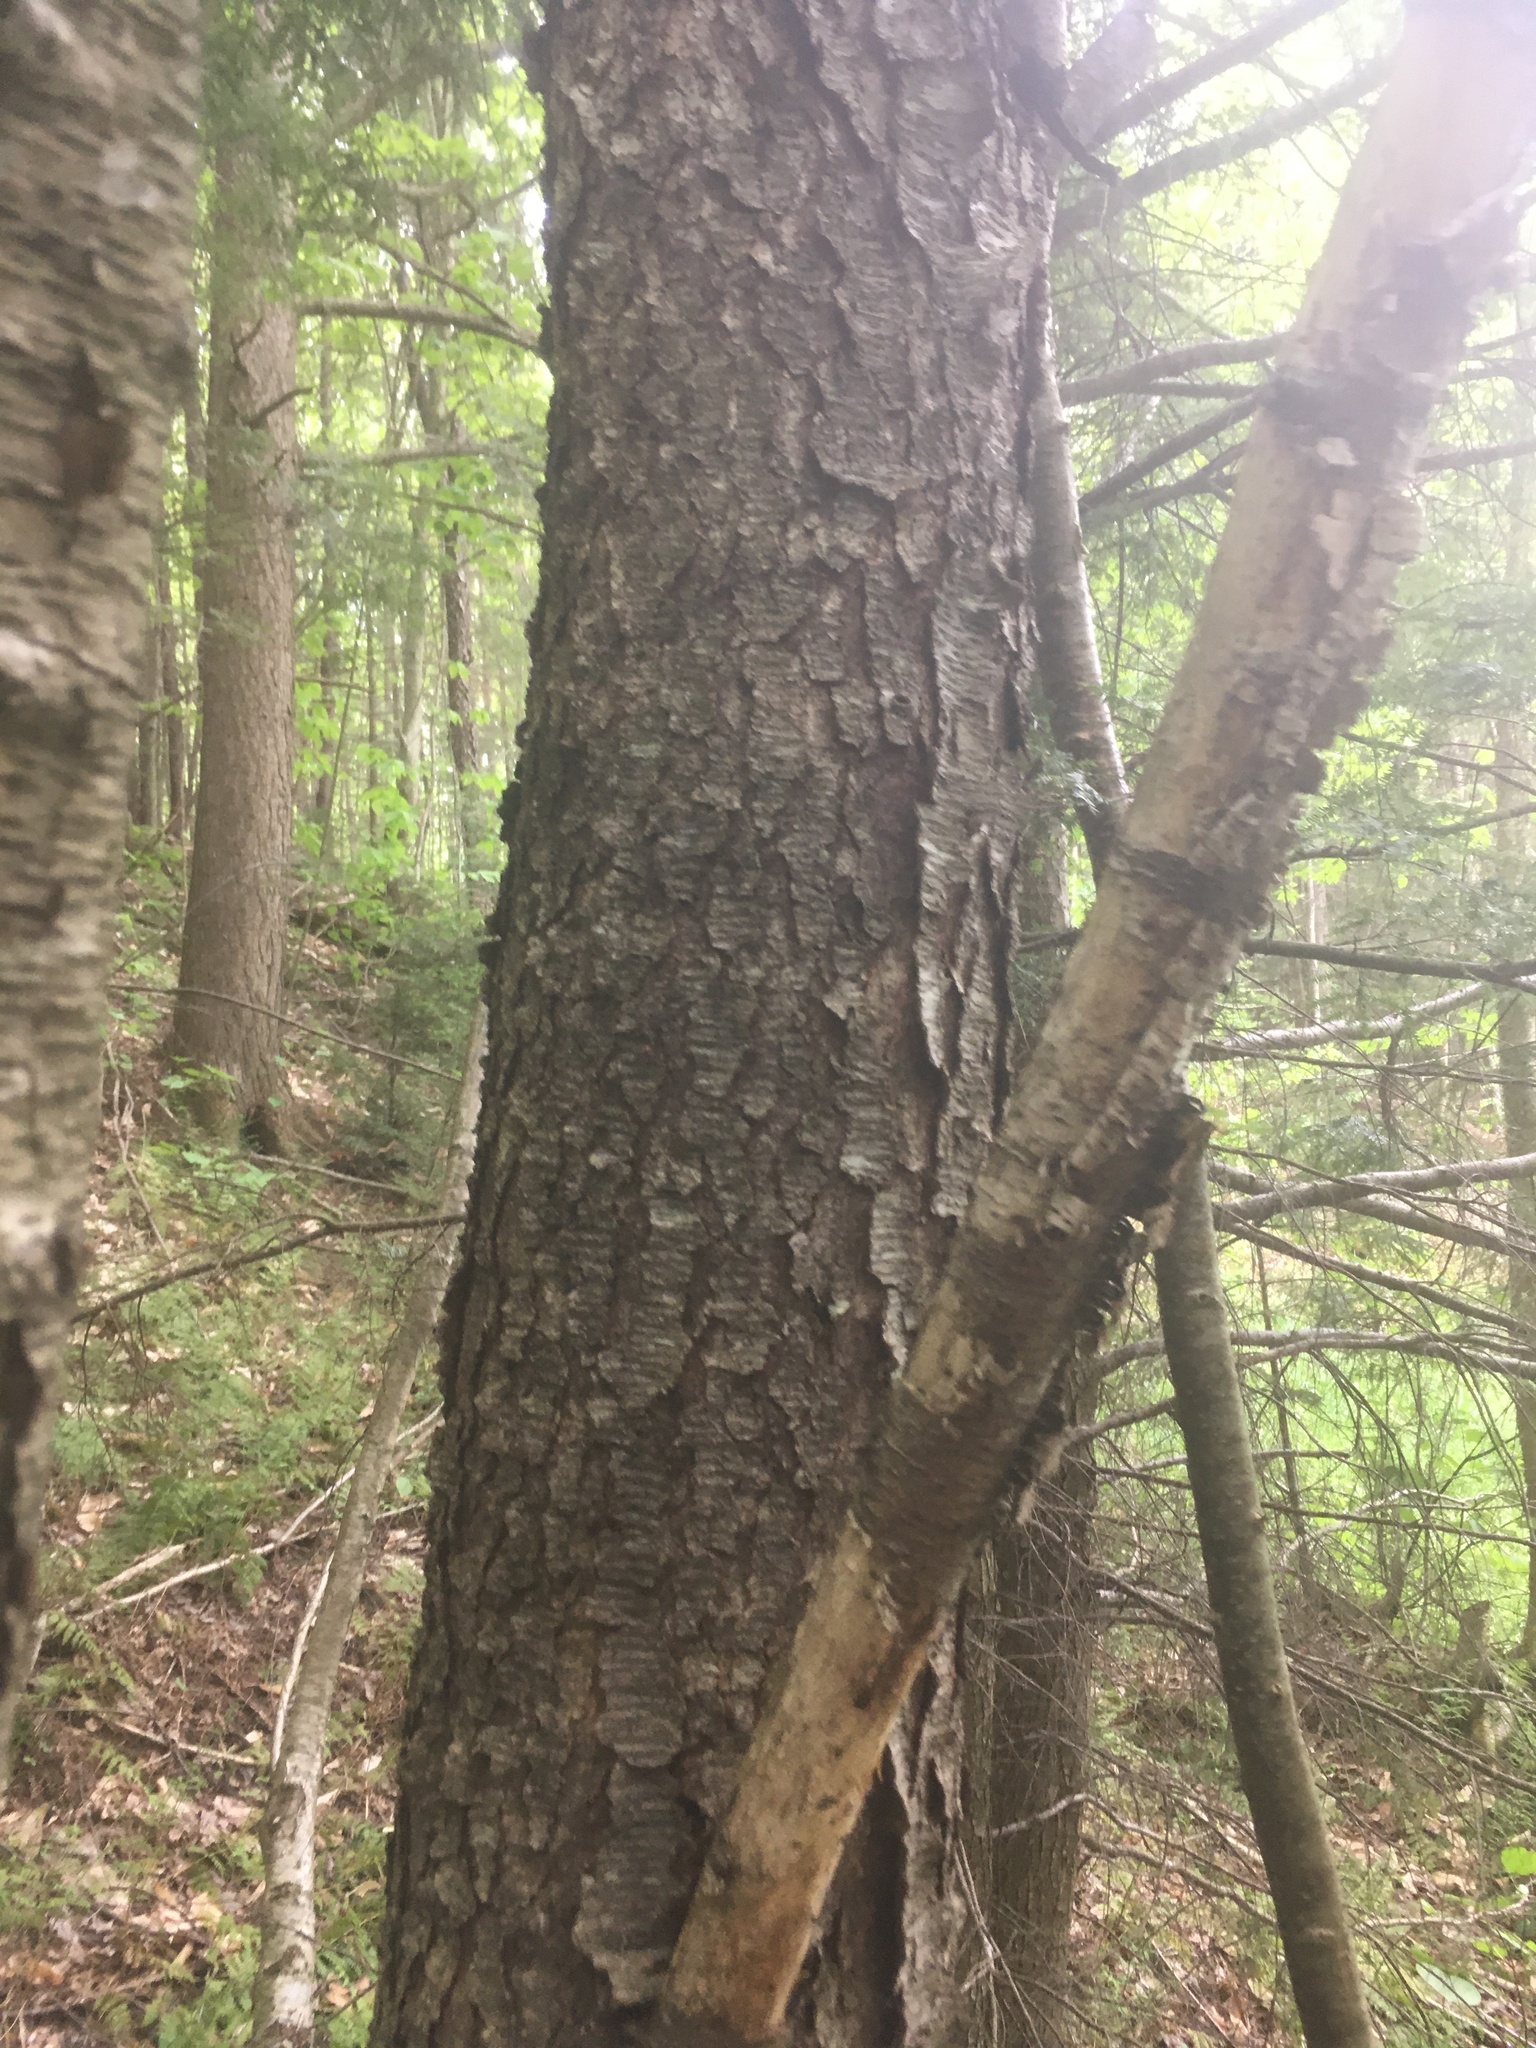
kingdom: Plantae
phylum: Tracheophyta
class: Magnoliopsida
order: Rosales
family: Rosaceae
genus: Prunus
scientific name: Prunus serotina
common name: Black cherry
